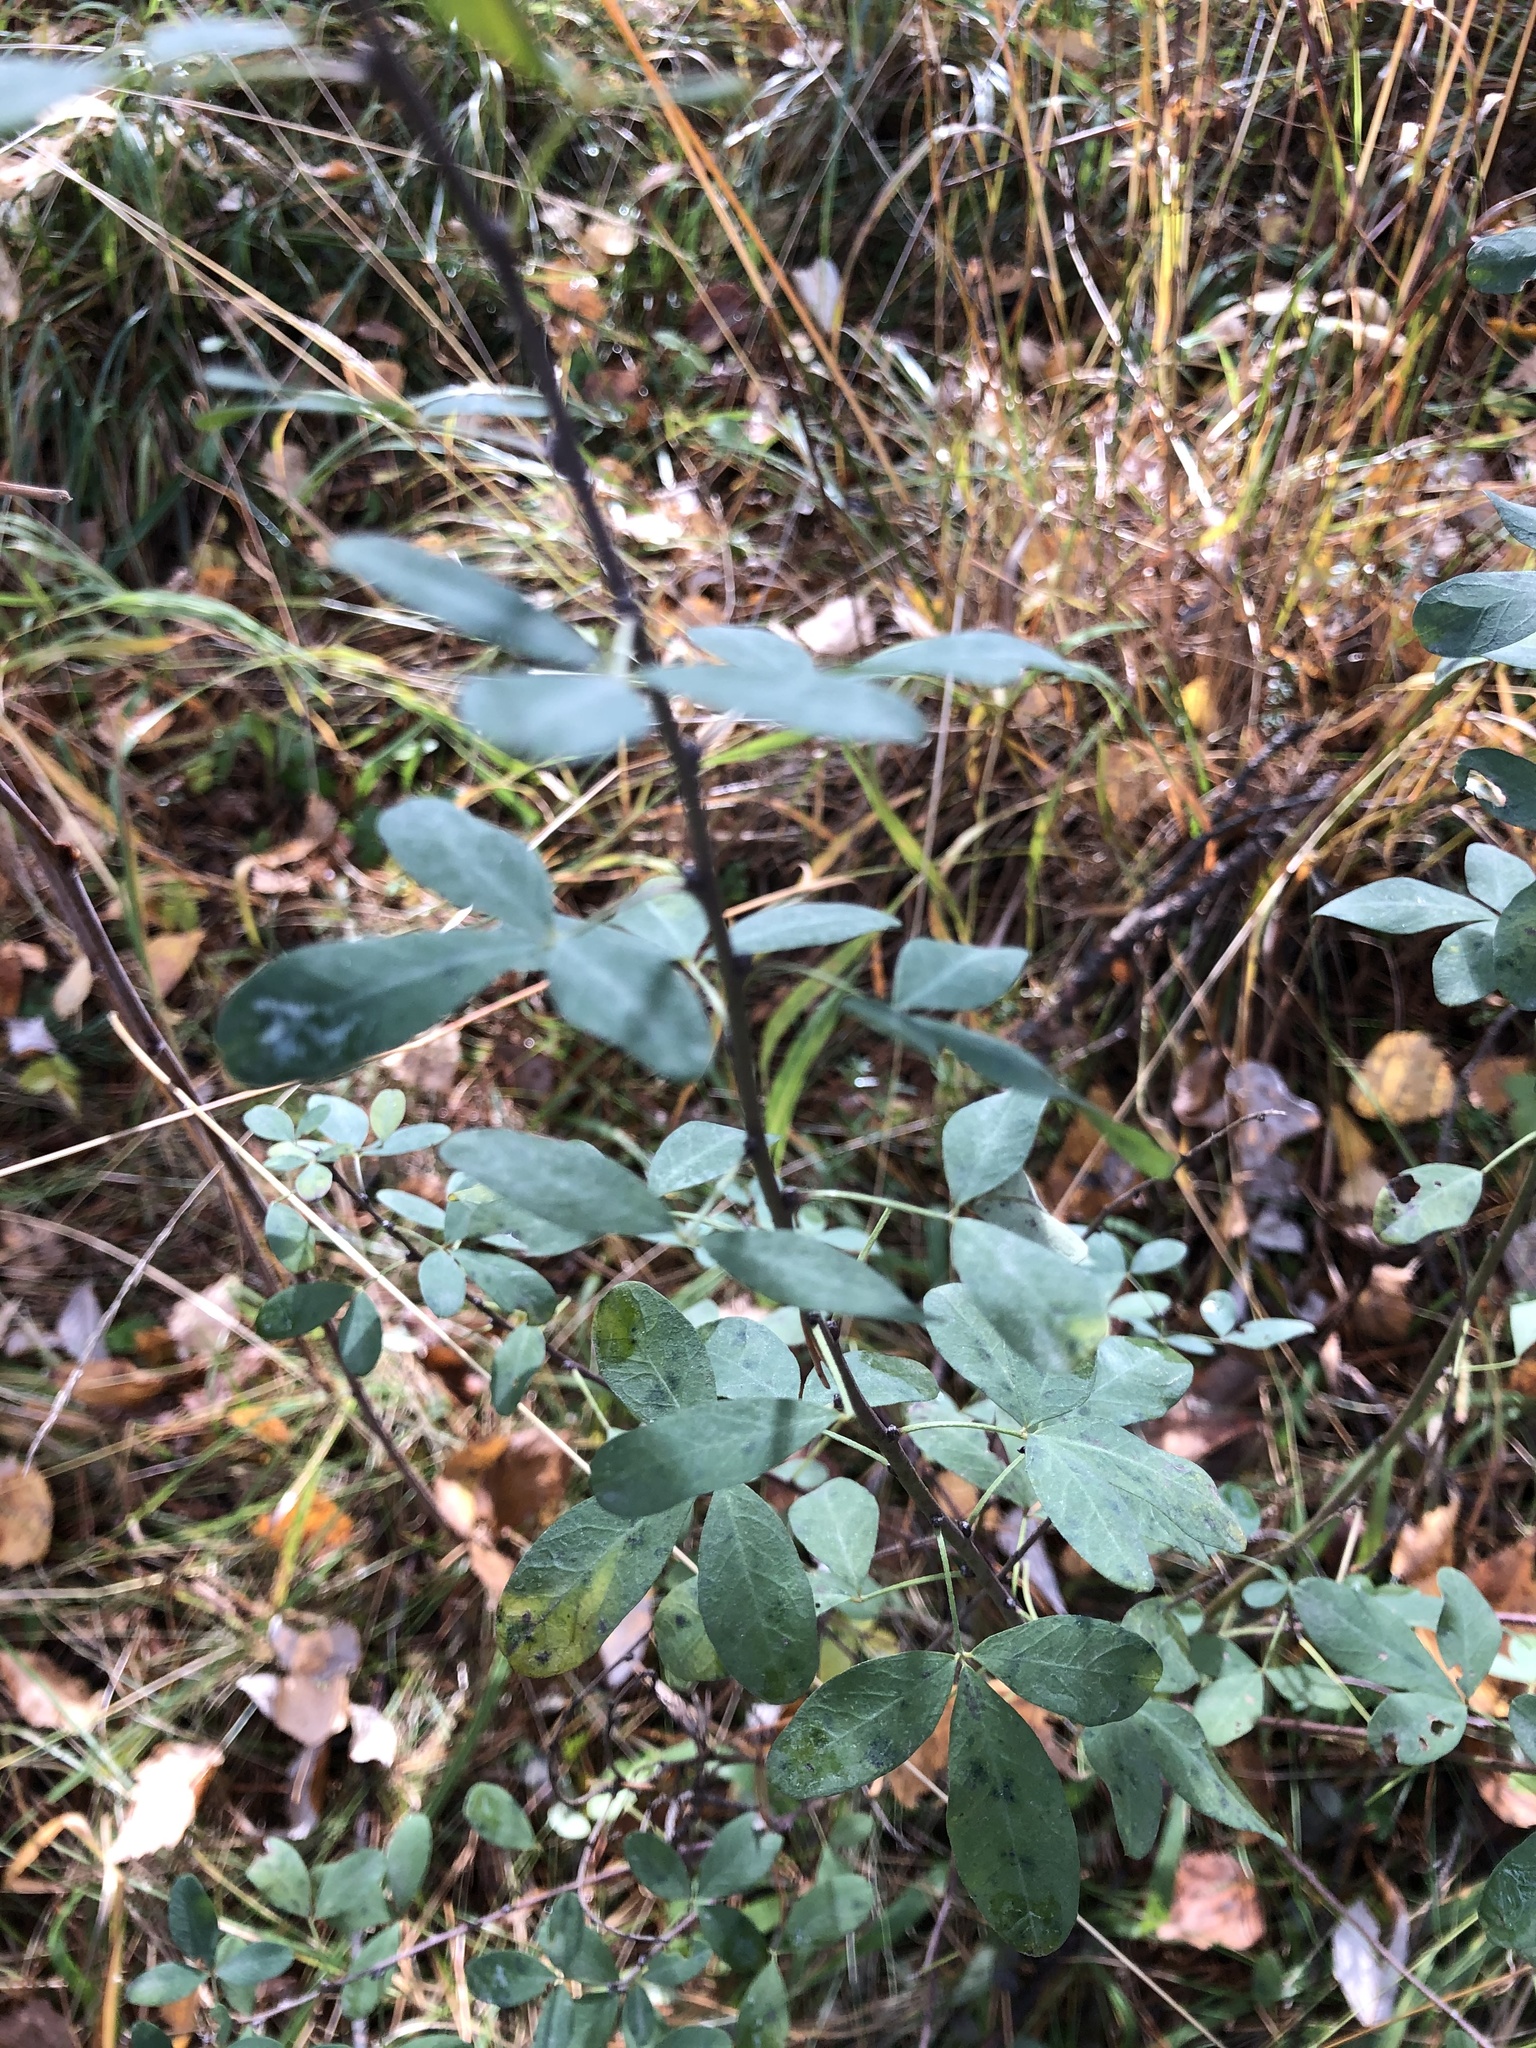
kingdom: Plantae
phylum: Tracheophyta
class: Magnoliopsida
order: Fabales
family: Fabaceae
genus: Chamaecytisus
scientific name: Chamaecytisus ruthenicus
